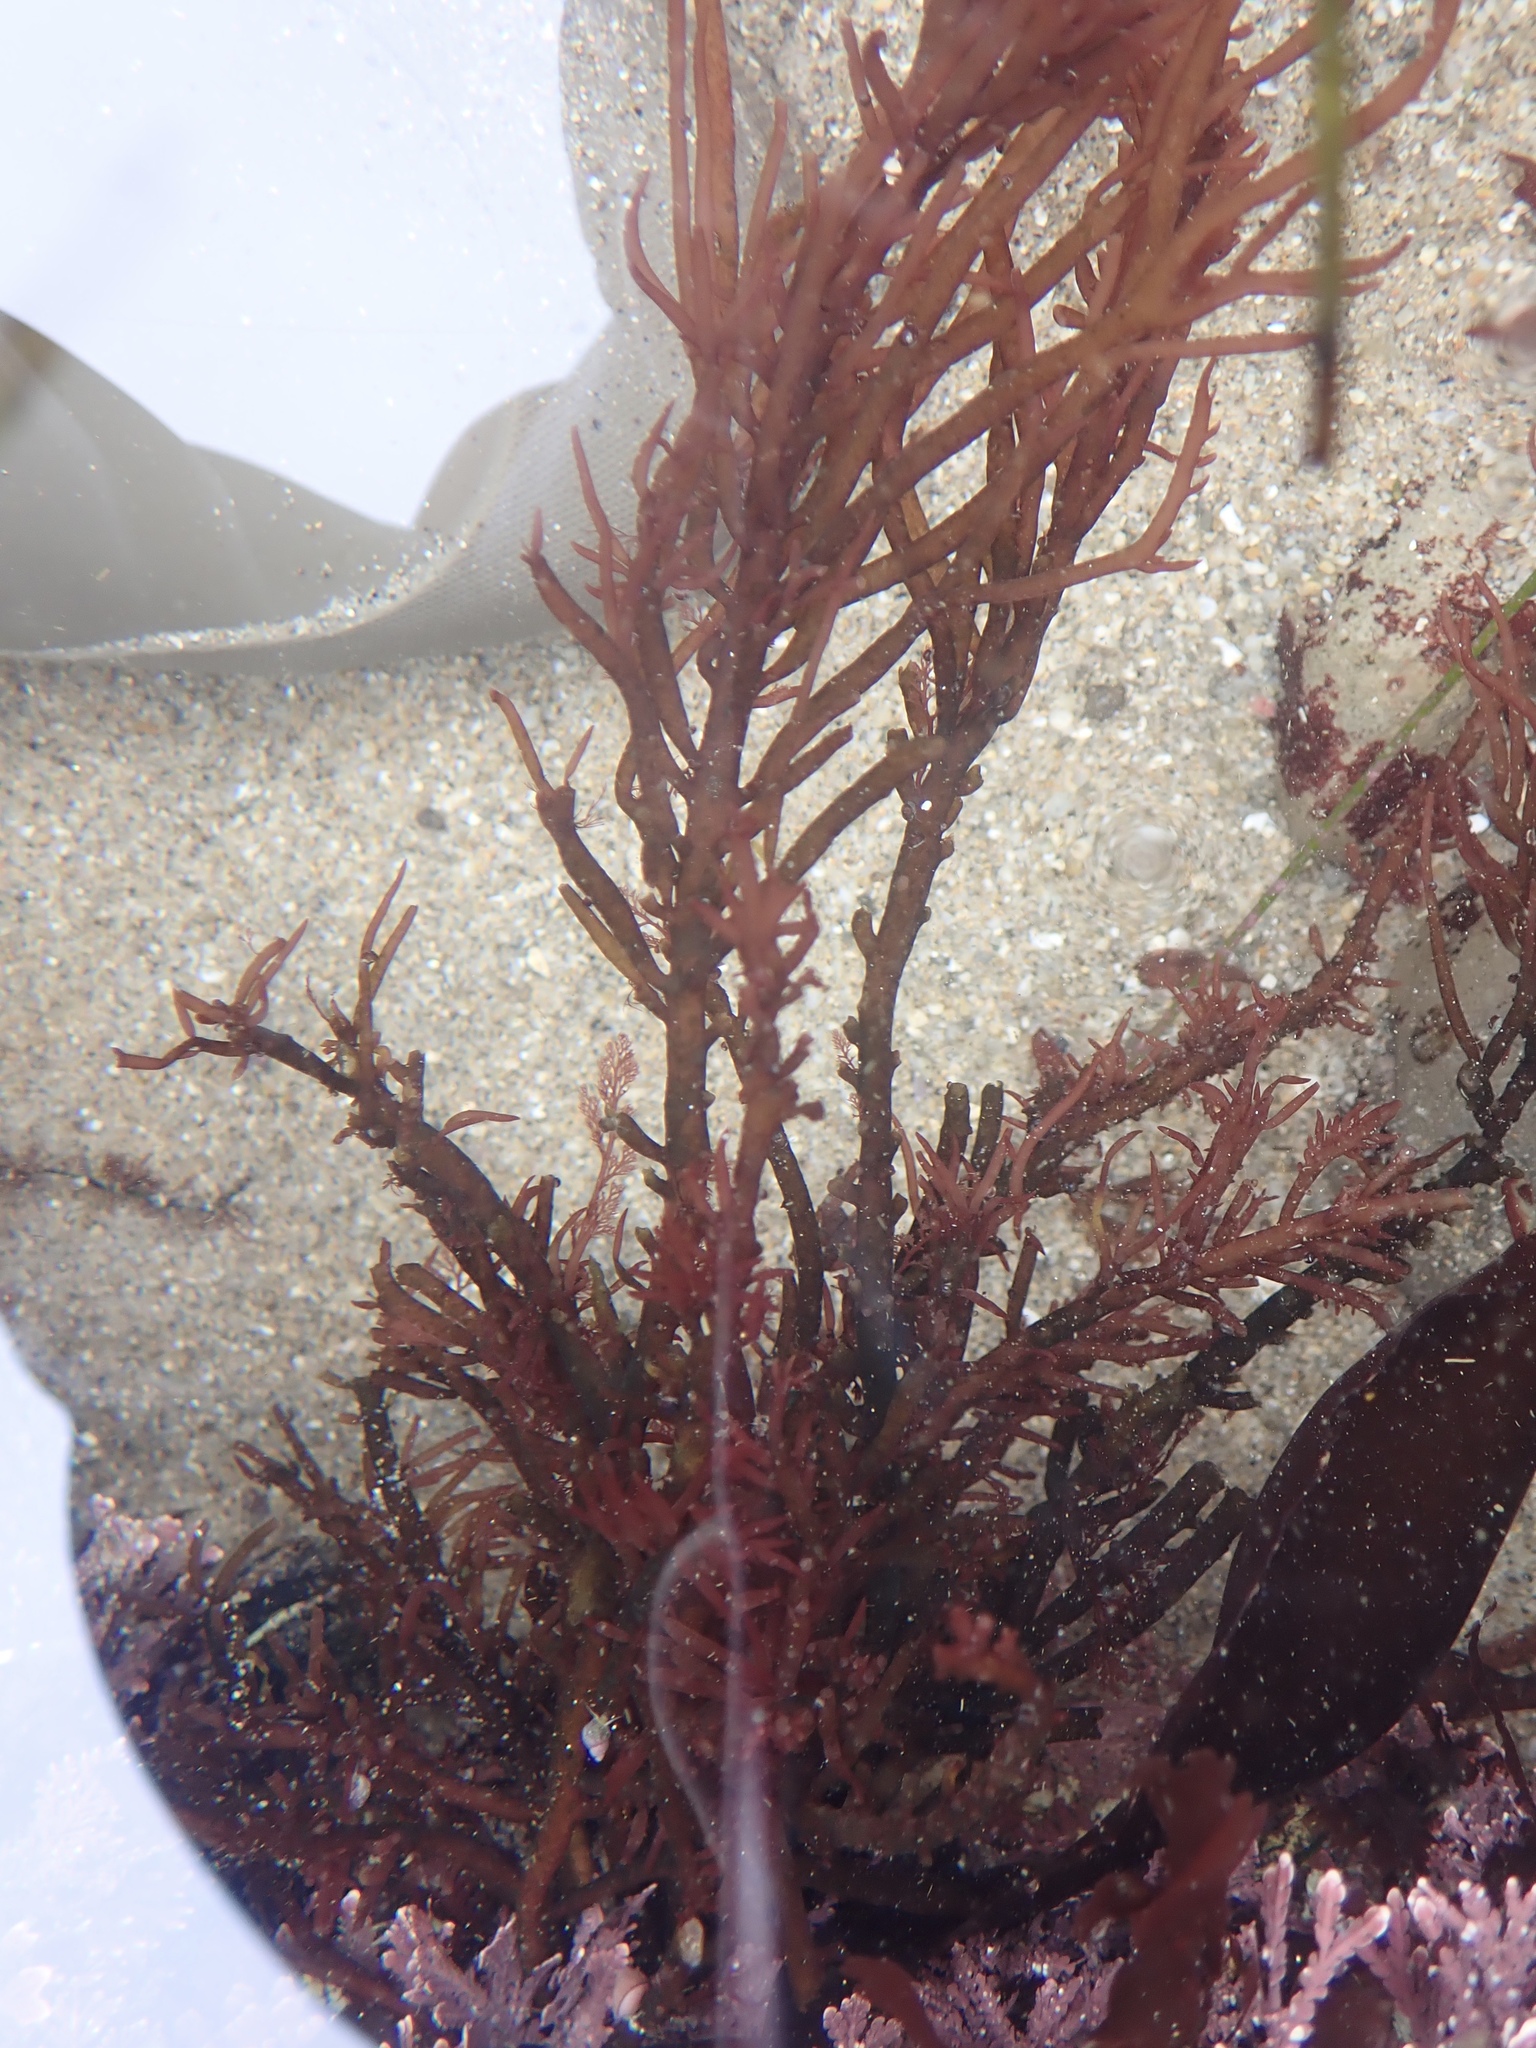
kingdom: Plantae
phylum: Rhodophyta
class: Florideophyceae
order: Gigartinales
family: Solieriaceae
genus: Sarcodiotheca
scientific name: Sarcodiotheca gaudichaudii
